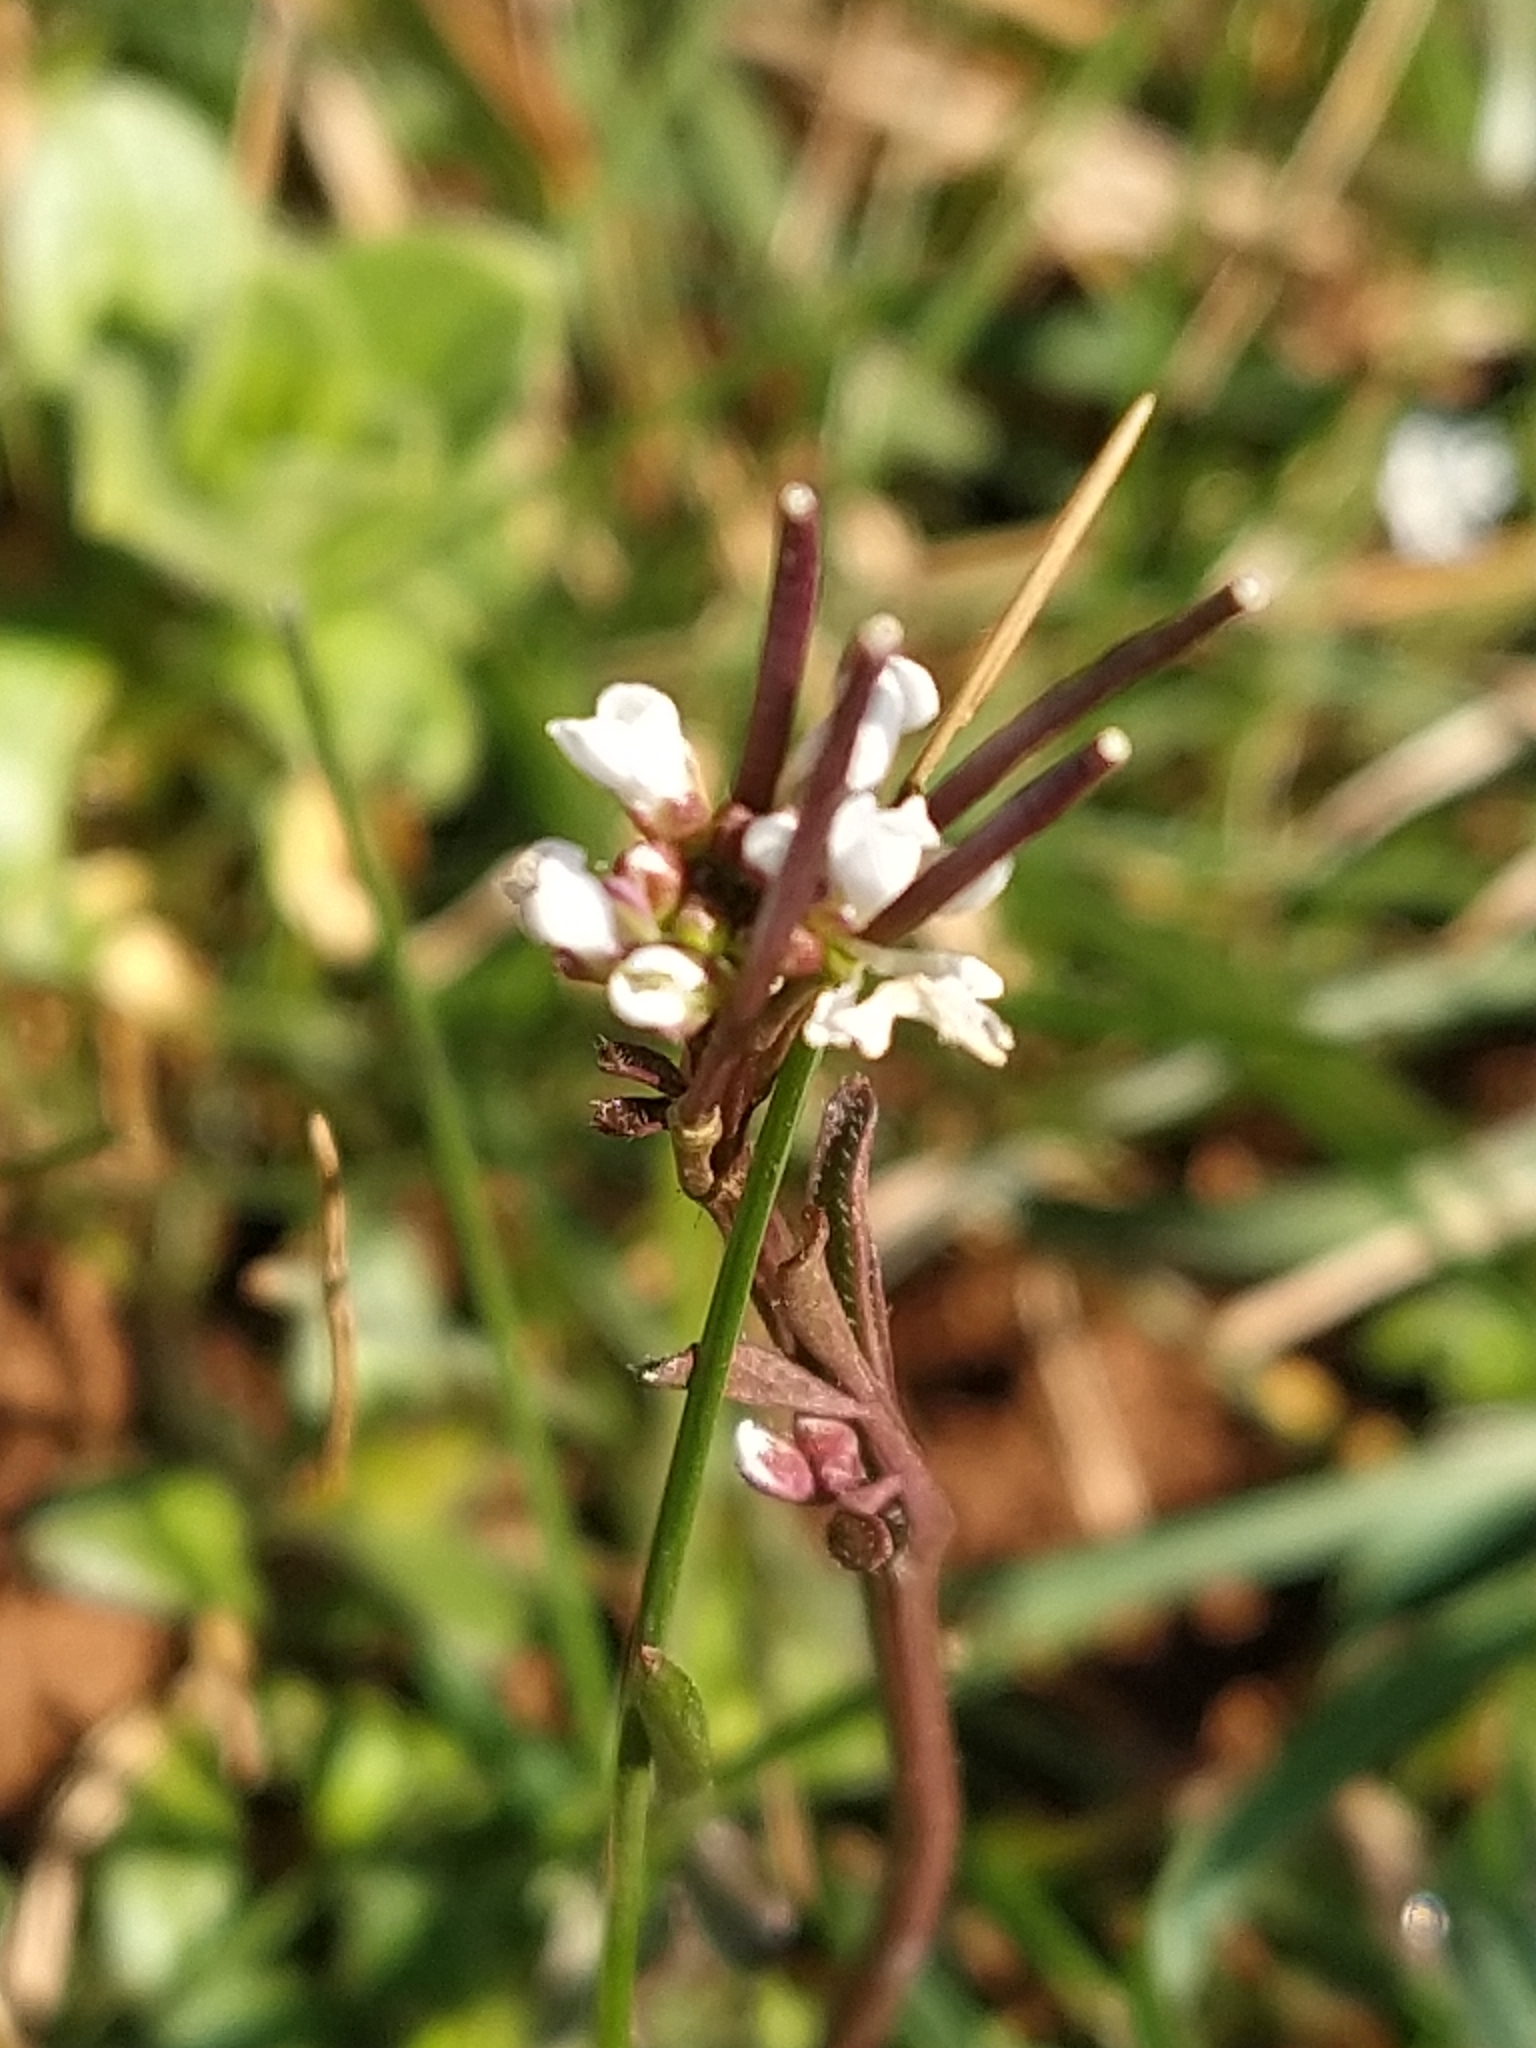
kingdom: Plantae
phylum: Tracheophyta
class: Magnoliopsida
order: Brassicales
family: Brassicaceae
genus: Cardamine
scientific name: Cardamine hirsuta
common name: Hairy bittercress
